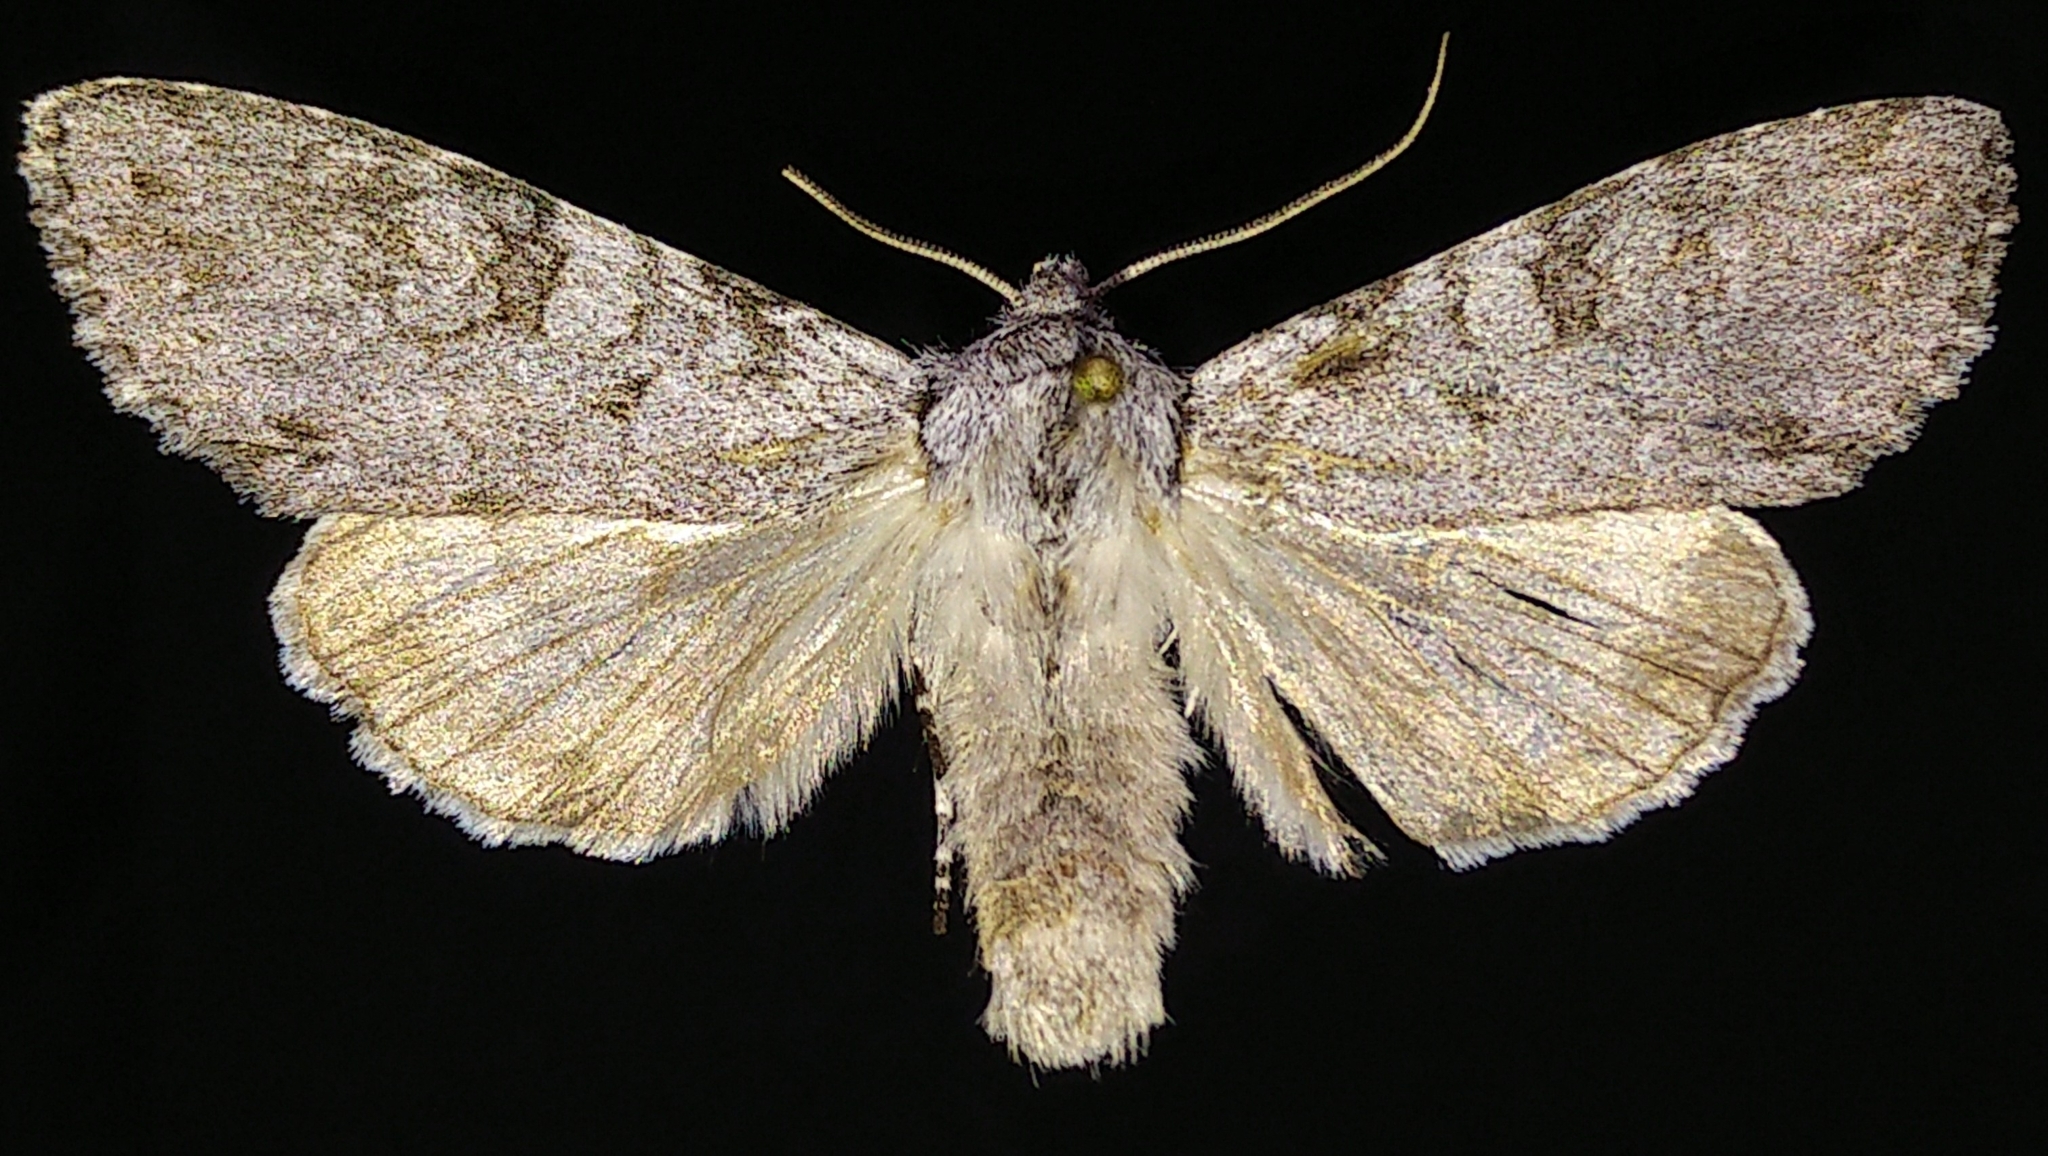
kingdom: Animalia
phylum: Arthropoda
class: Insecta
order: Lepidoptera
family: Noctuidae
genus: Polia
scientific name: Polia piniae
